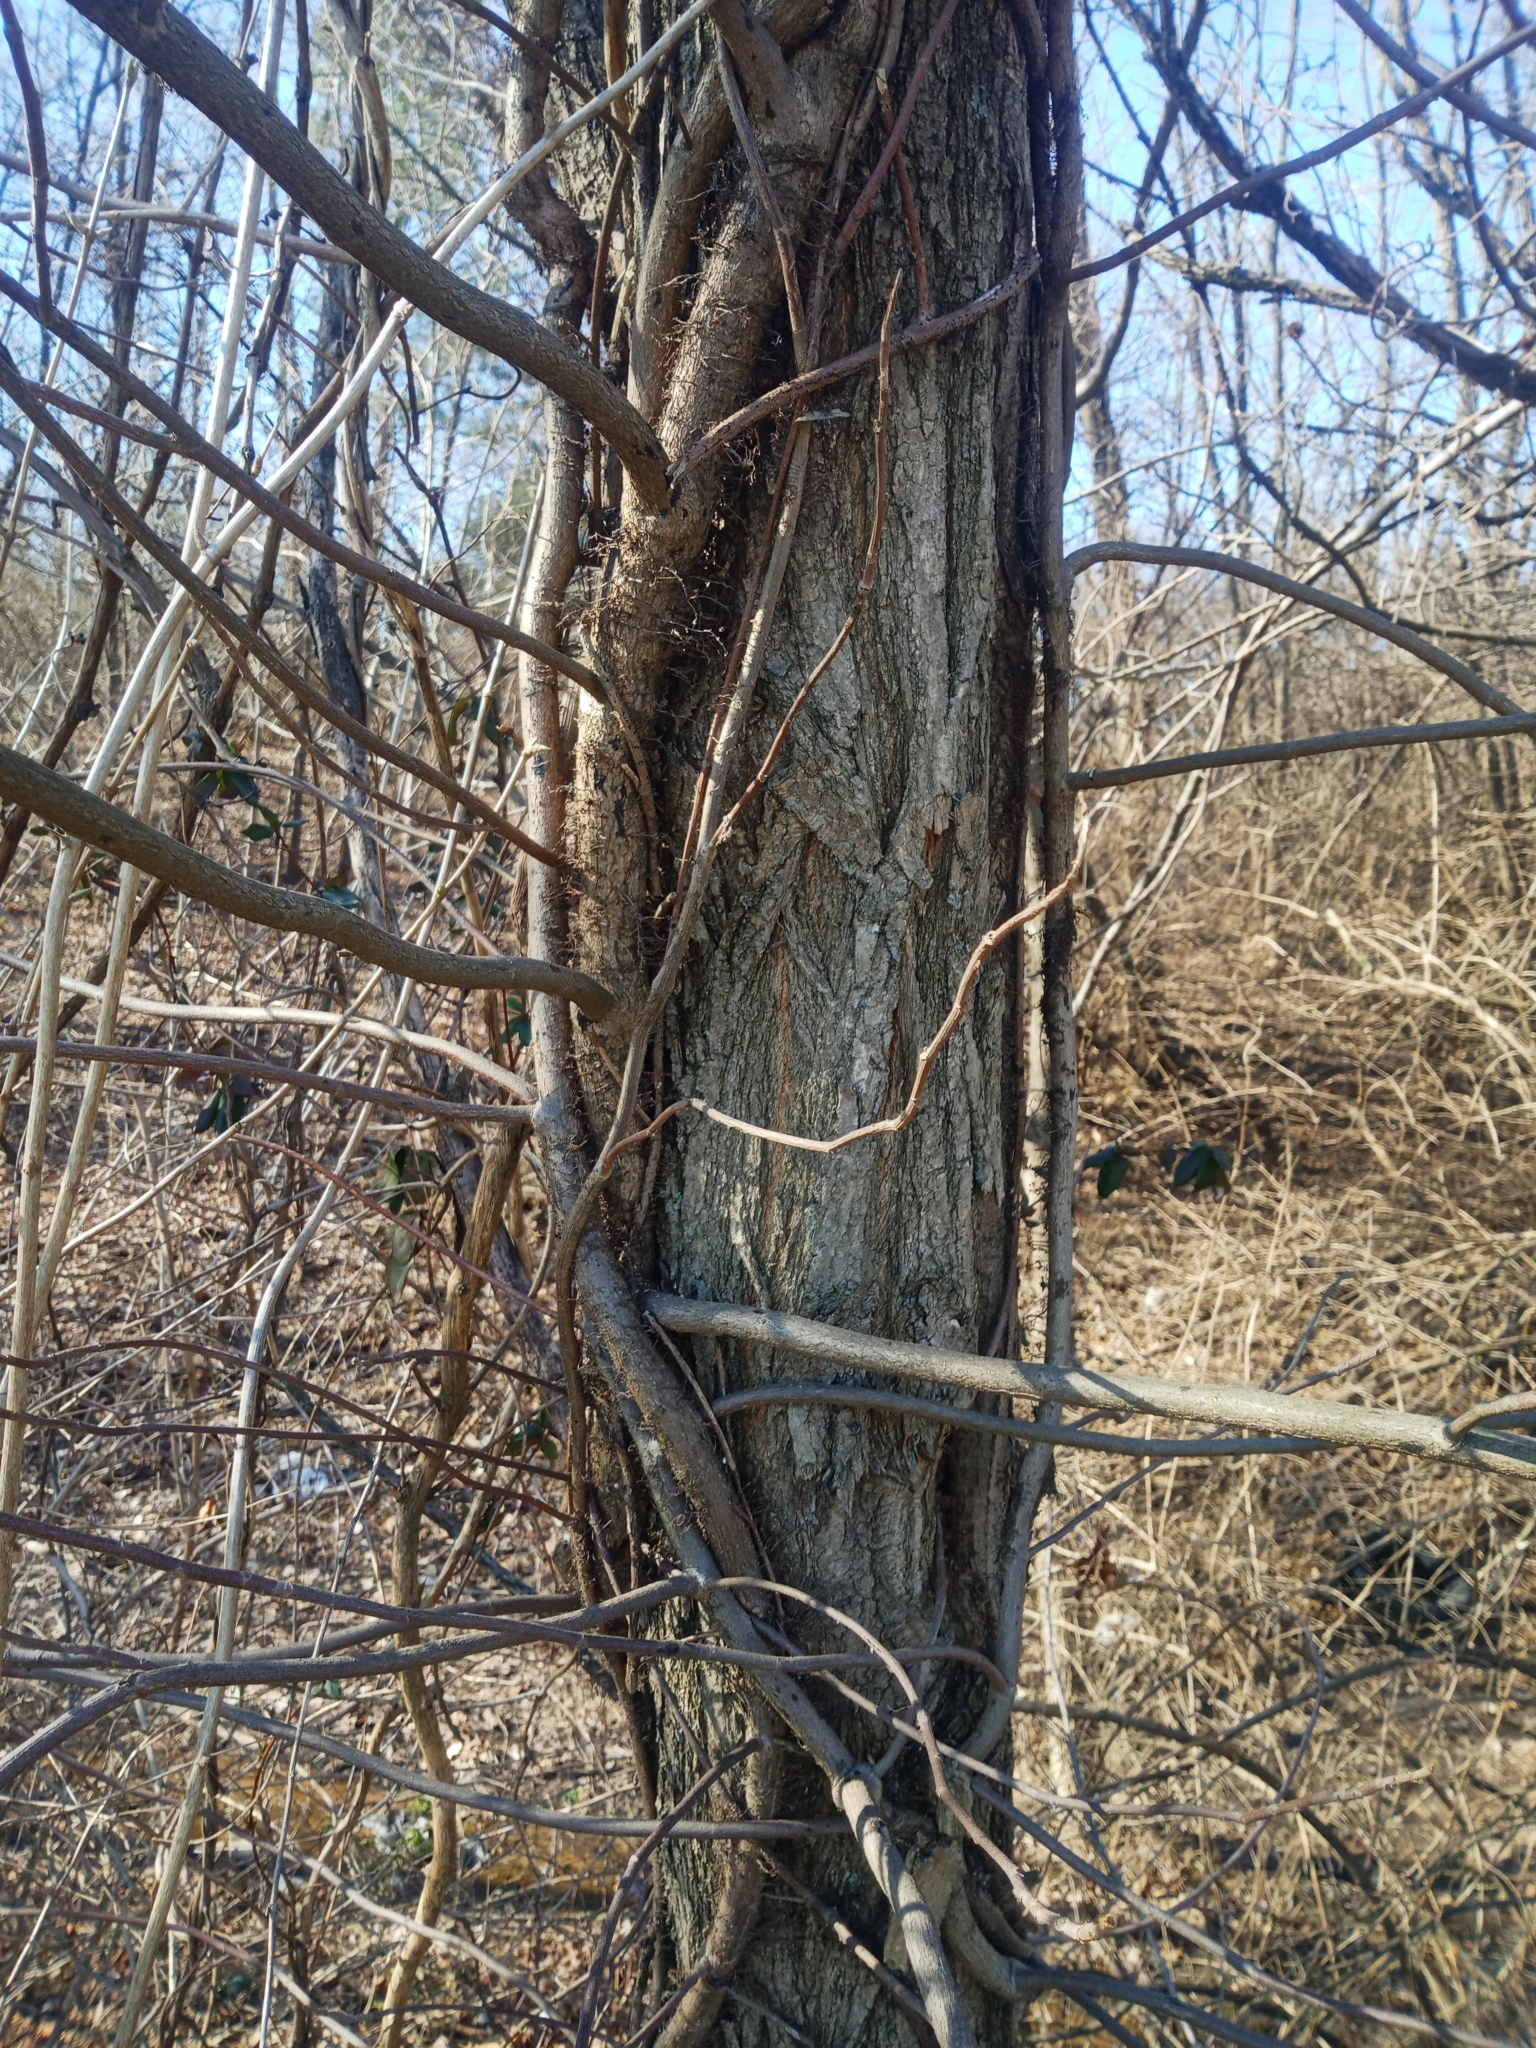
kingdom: Plantae
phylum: Tracheophyta
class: Magnoliopsida
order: Sapindales
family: Anacardiaceae
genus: Toxicodendron
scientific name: Toxicodendron radicans
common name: Poison ivy
